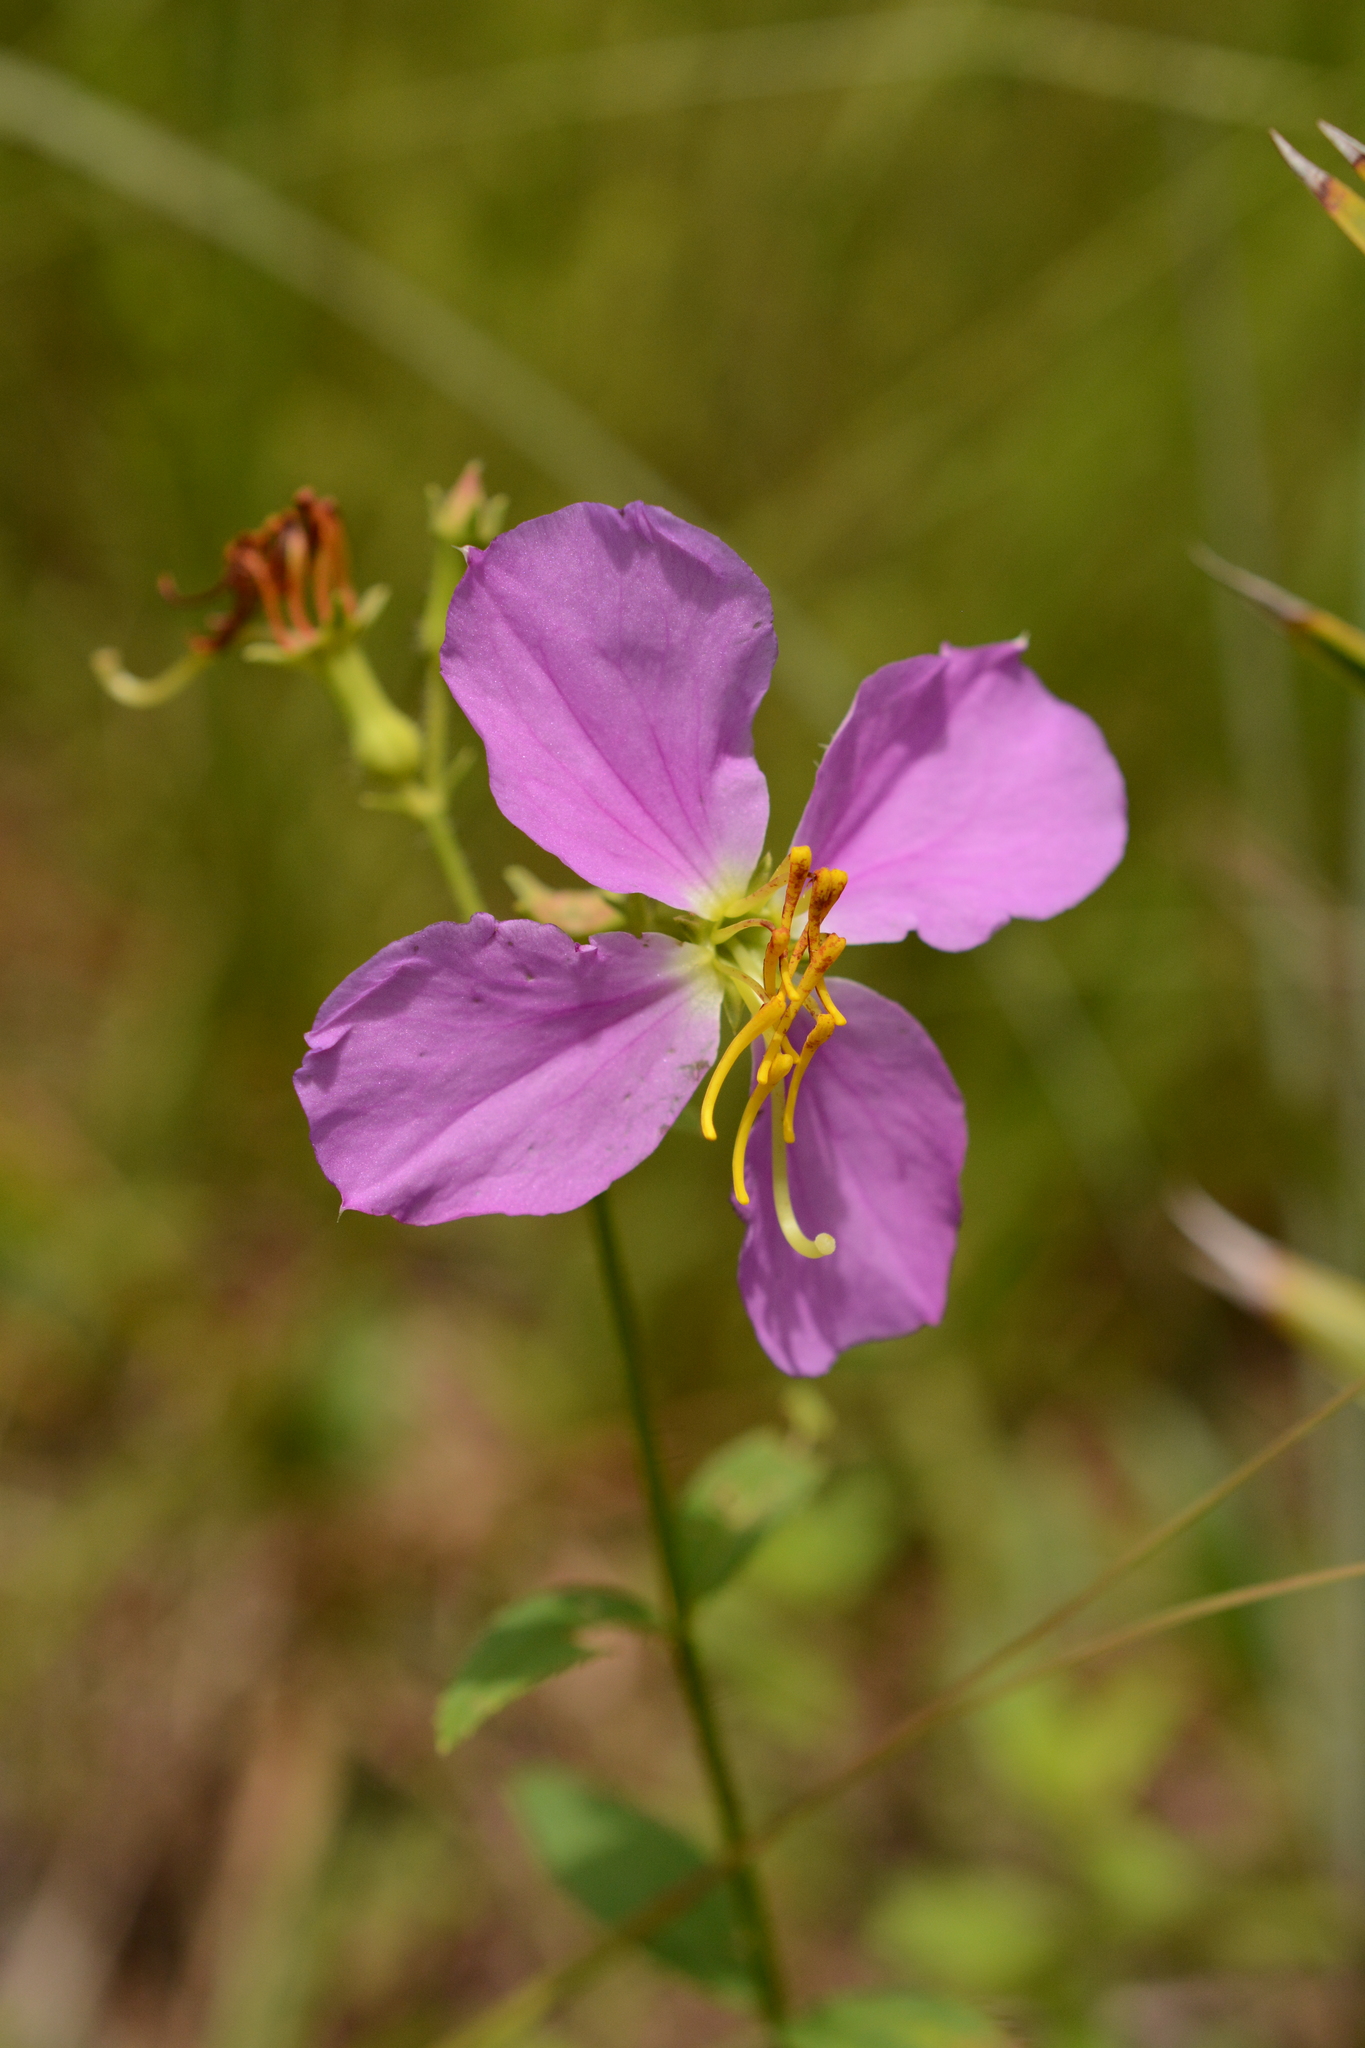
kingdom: Plantae
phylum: Tracheophyta
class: Magnoliopsida
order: Myrtales
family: Melastomataceae
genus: Rhexia
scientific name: Rhexia nashii
